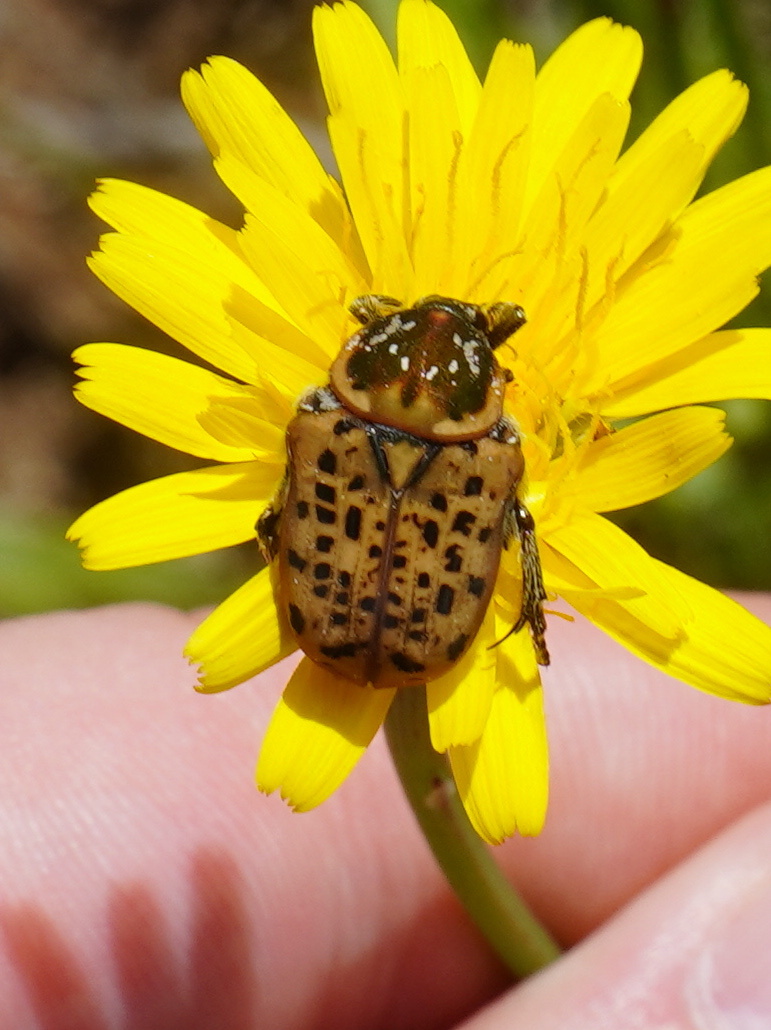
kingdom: Animalia
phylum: Arthropoda
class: Insecta
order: Coleoptera
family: Scarabaeidae
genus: Atrichelaphinis
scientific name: Atrichelaphinis tigrina
